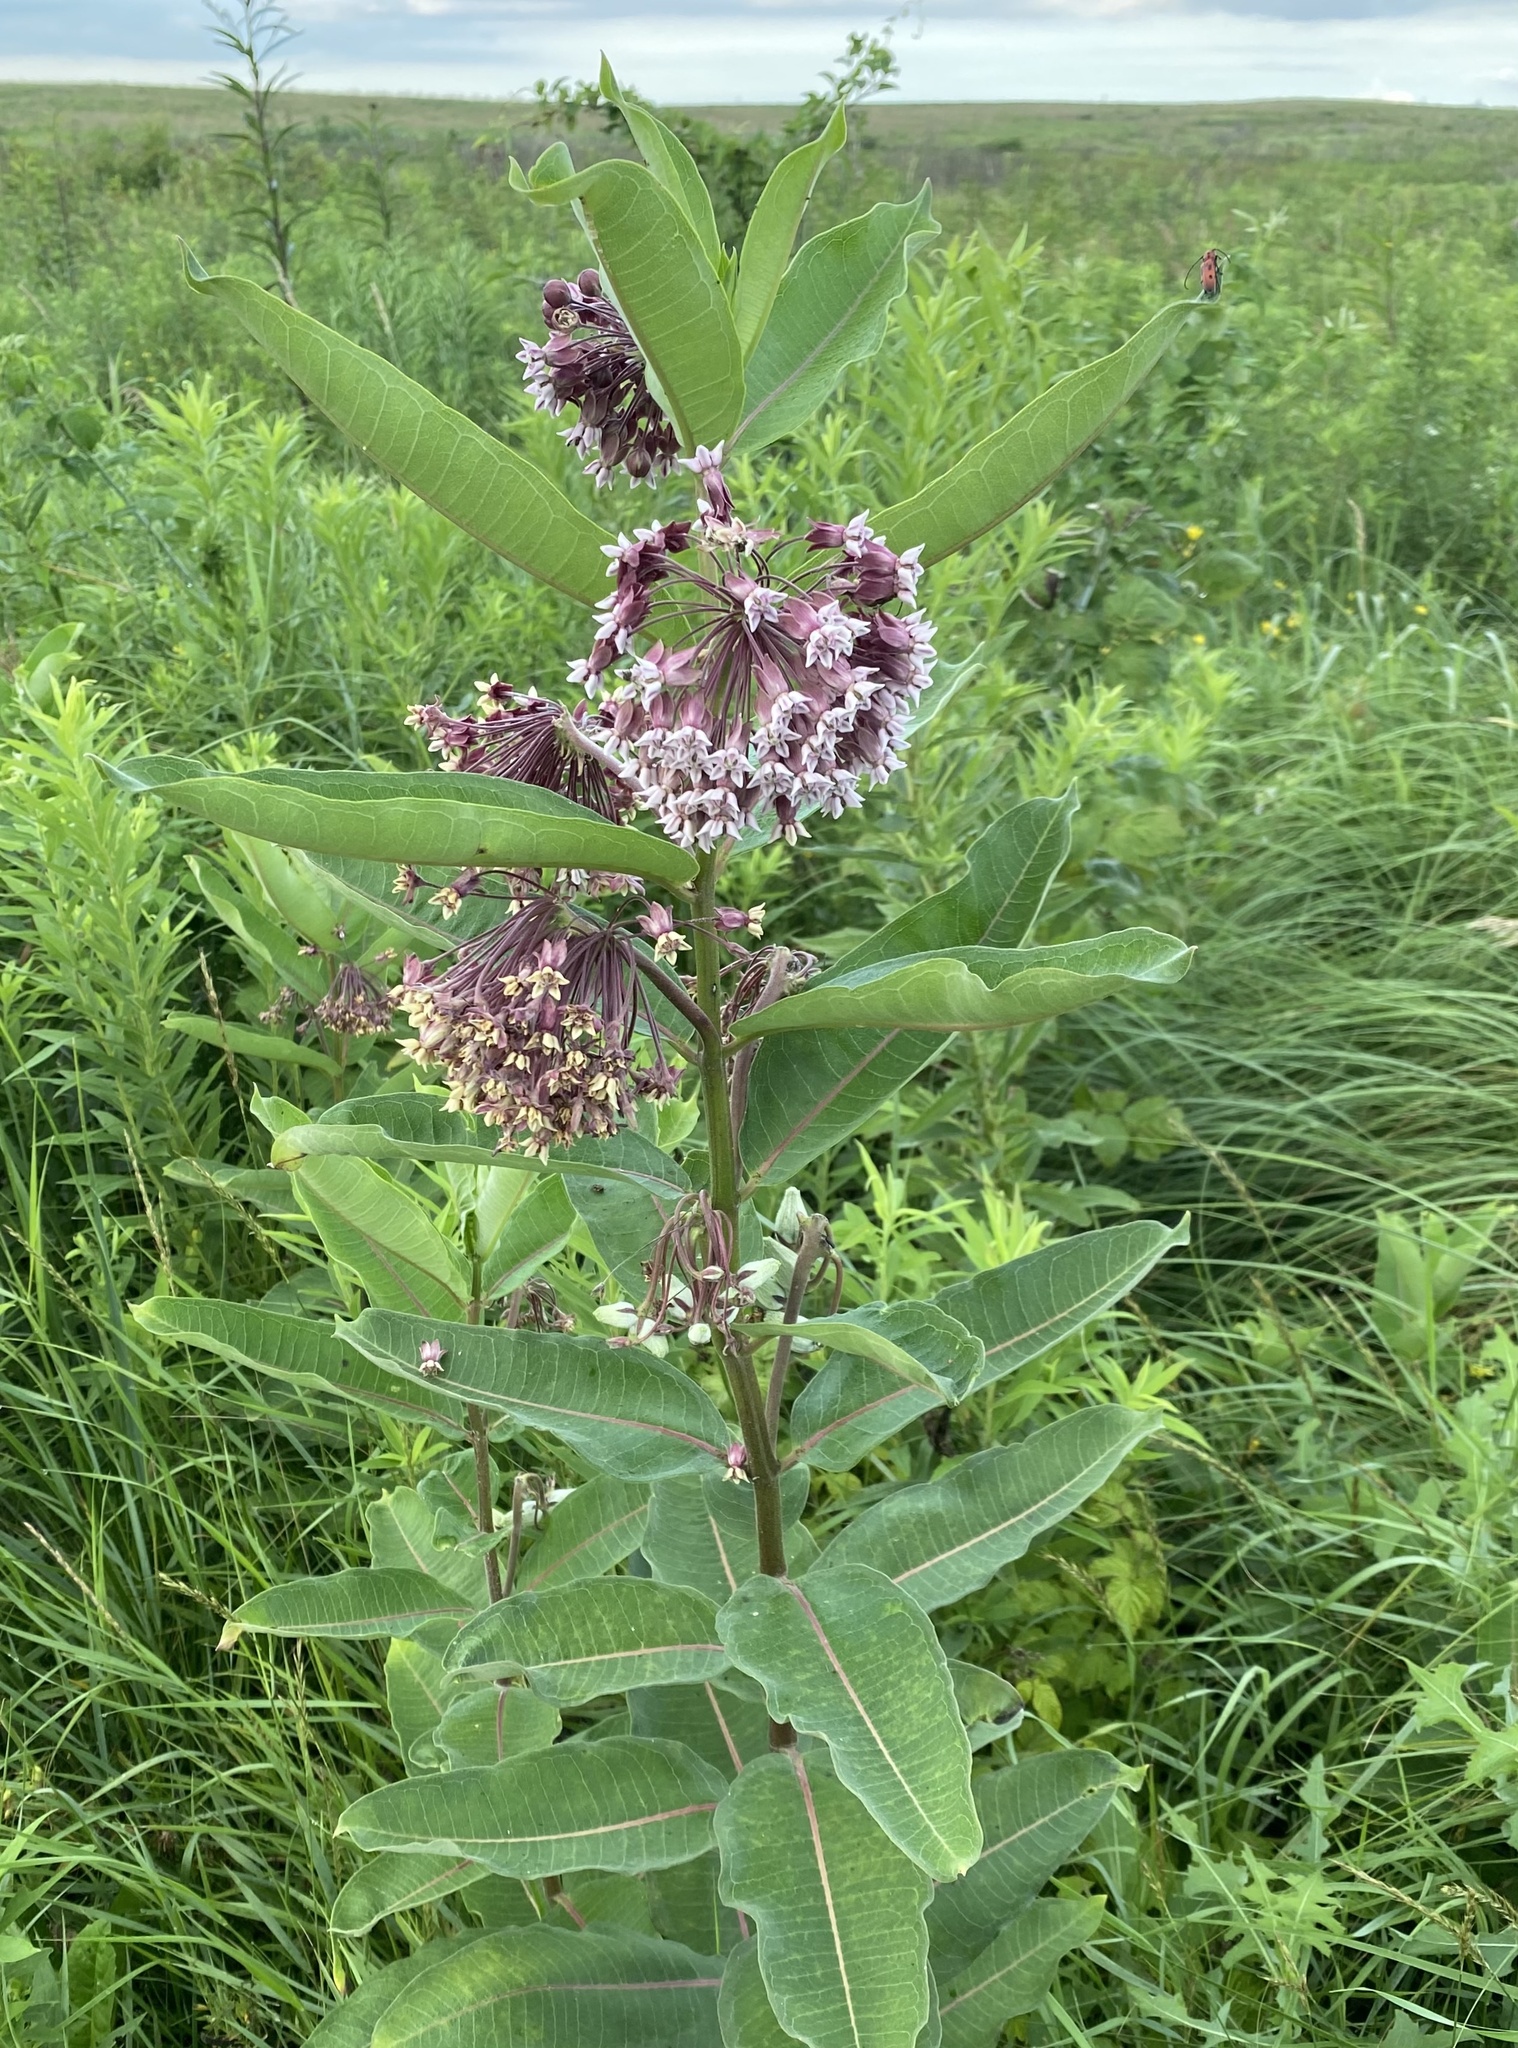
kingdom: Plantae
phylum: Tracheophyta
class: Magnoliopsida
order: Gentianales
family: Apocynaceae
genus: Asclepias
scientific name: Asclepias syriaca
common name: Common milkweed
